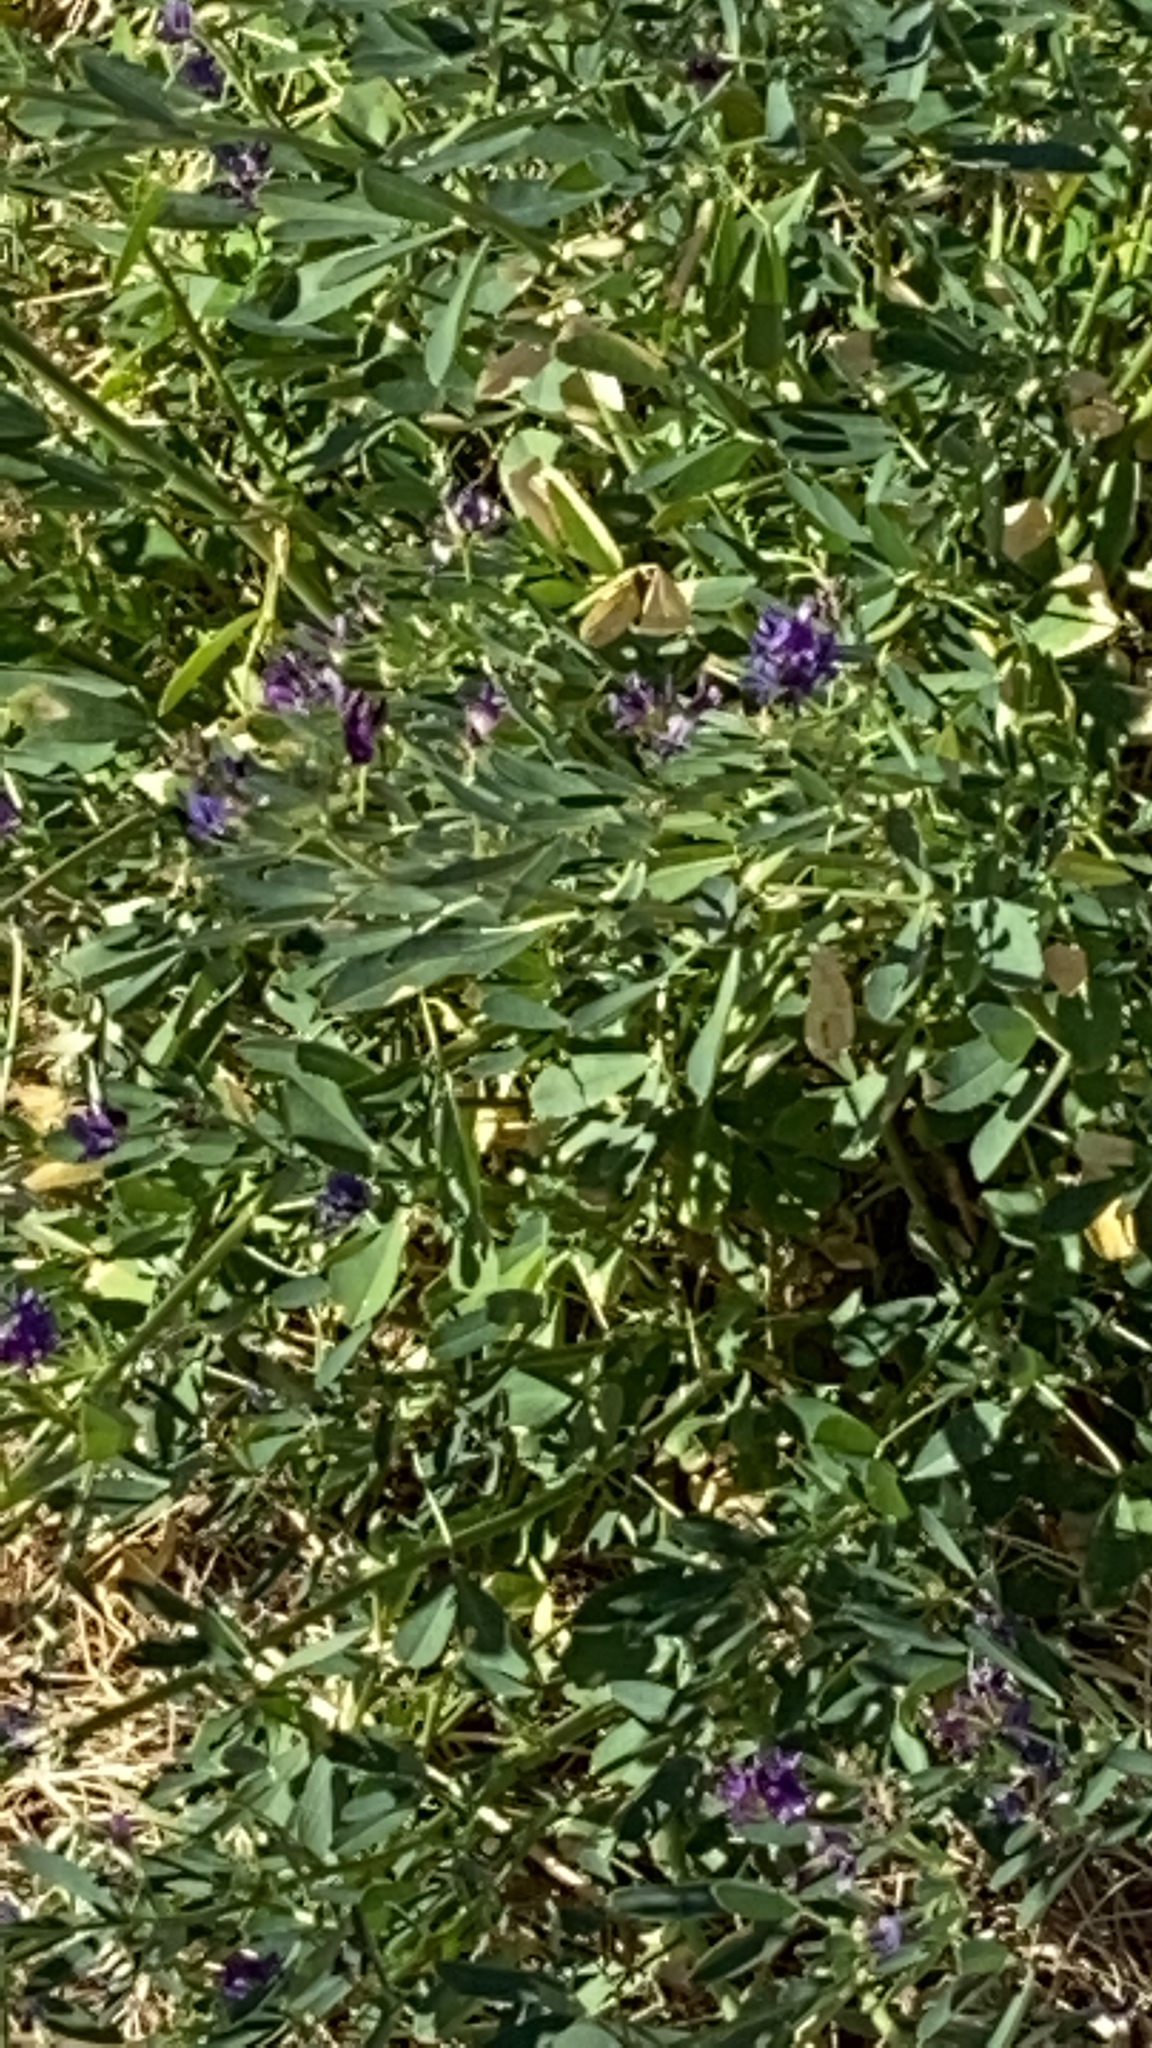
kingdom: Plantae
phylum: Tracheophyta
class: Magnoliopsida
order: Fabales
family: Fabaceae
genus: Medicago
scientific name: Medicago sativa
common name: Alfalfa
